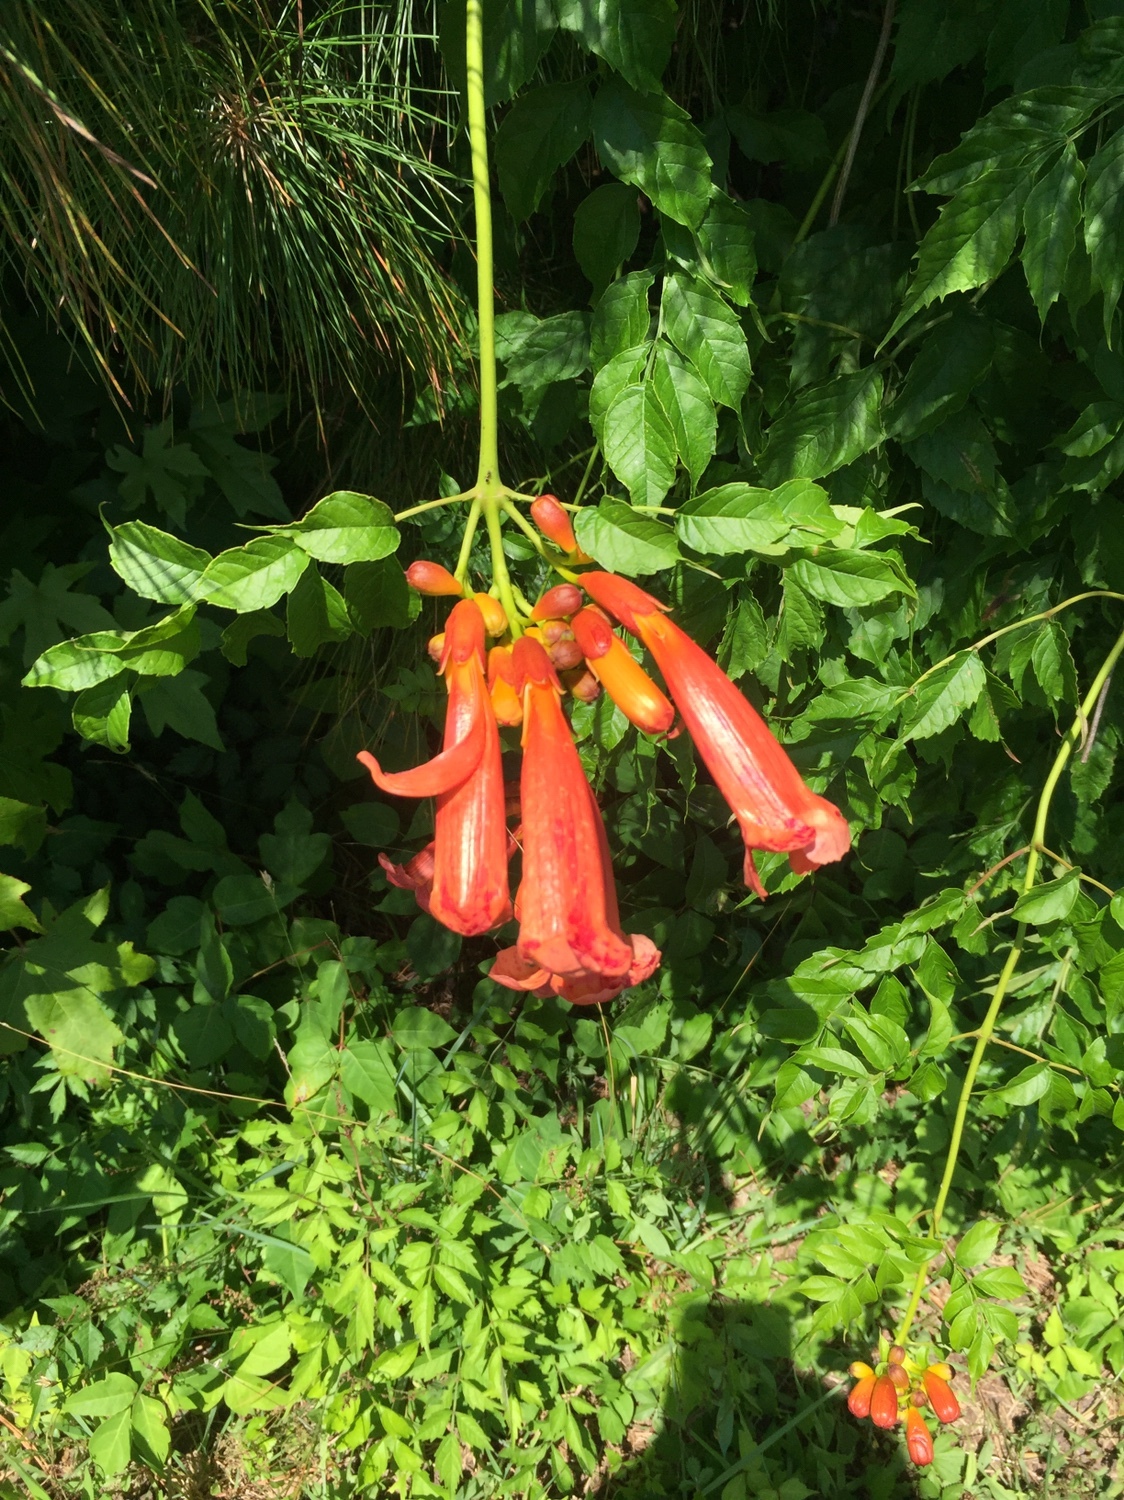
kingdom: Plantae
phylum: Tracheophyta
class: Magnoliopsida
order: Lamiales
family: Bignoniaceae
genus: Campsis
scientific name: Campsis radicans
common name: Trumpet-creeper
